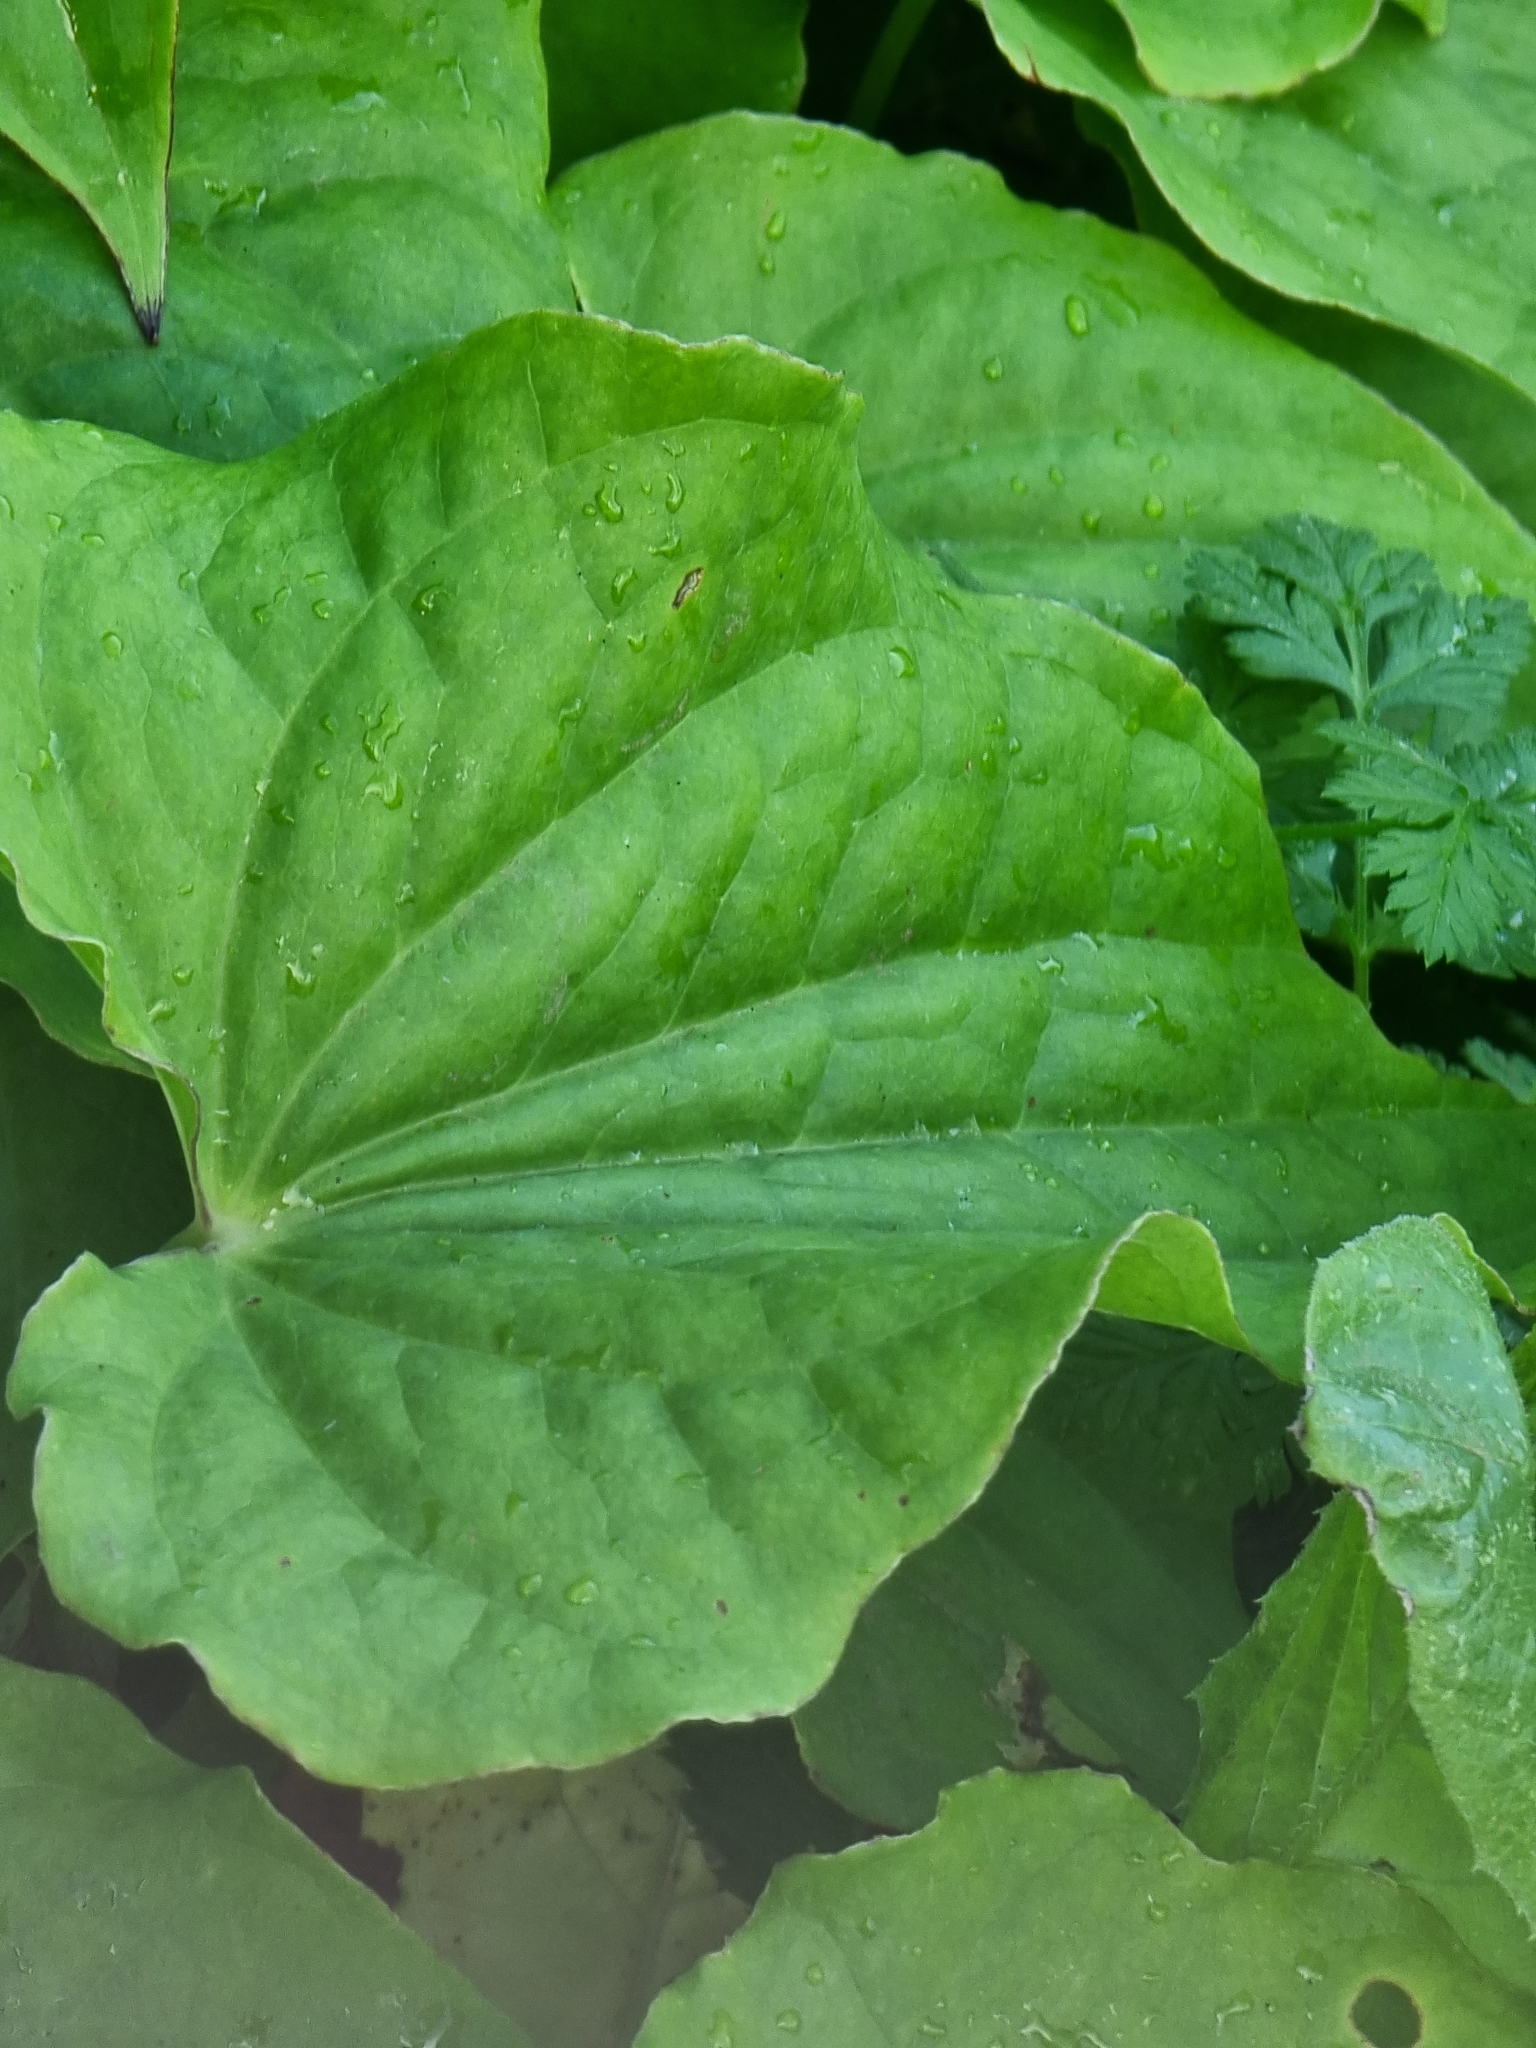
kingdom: Plantae
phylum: Tracheophyta
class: Liliopsida
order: Liliales
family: Smilacaceae
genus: Smilax
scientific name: Smilax aspera
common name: Common smilax
